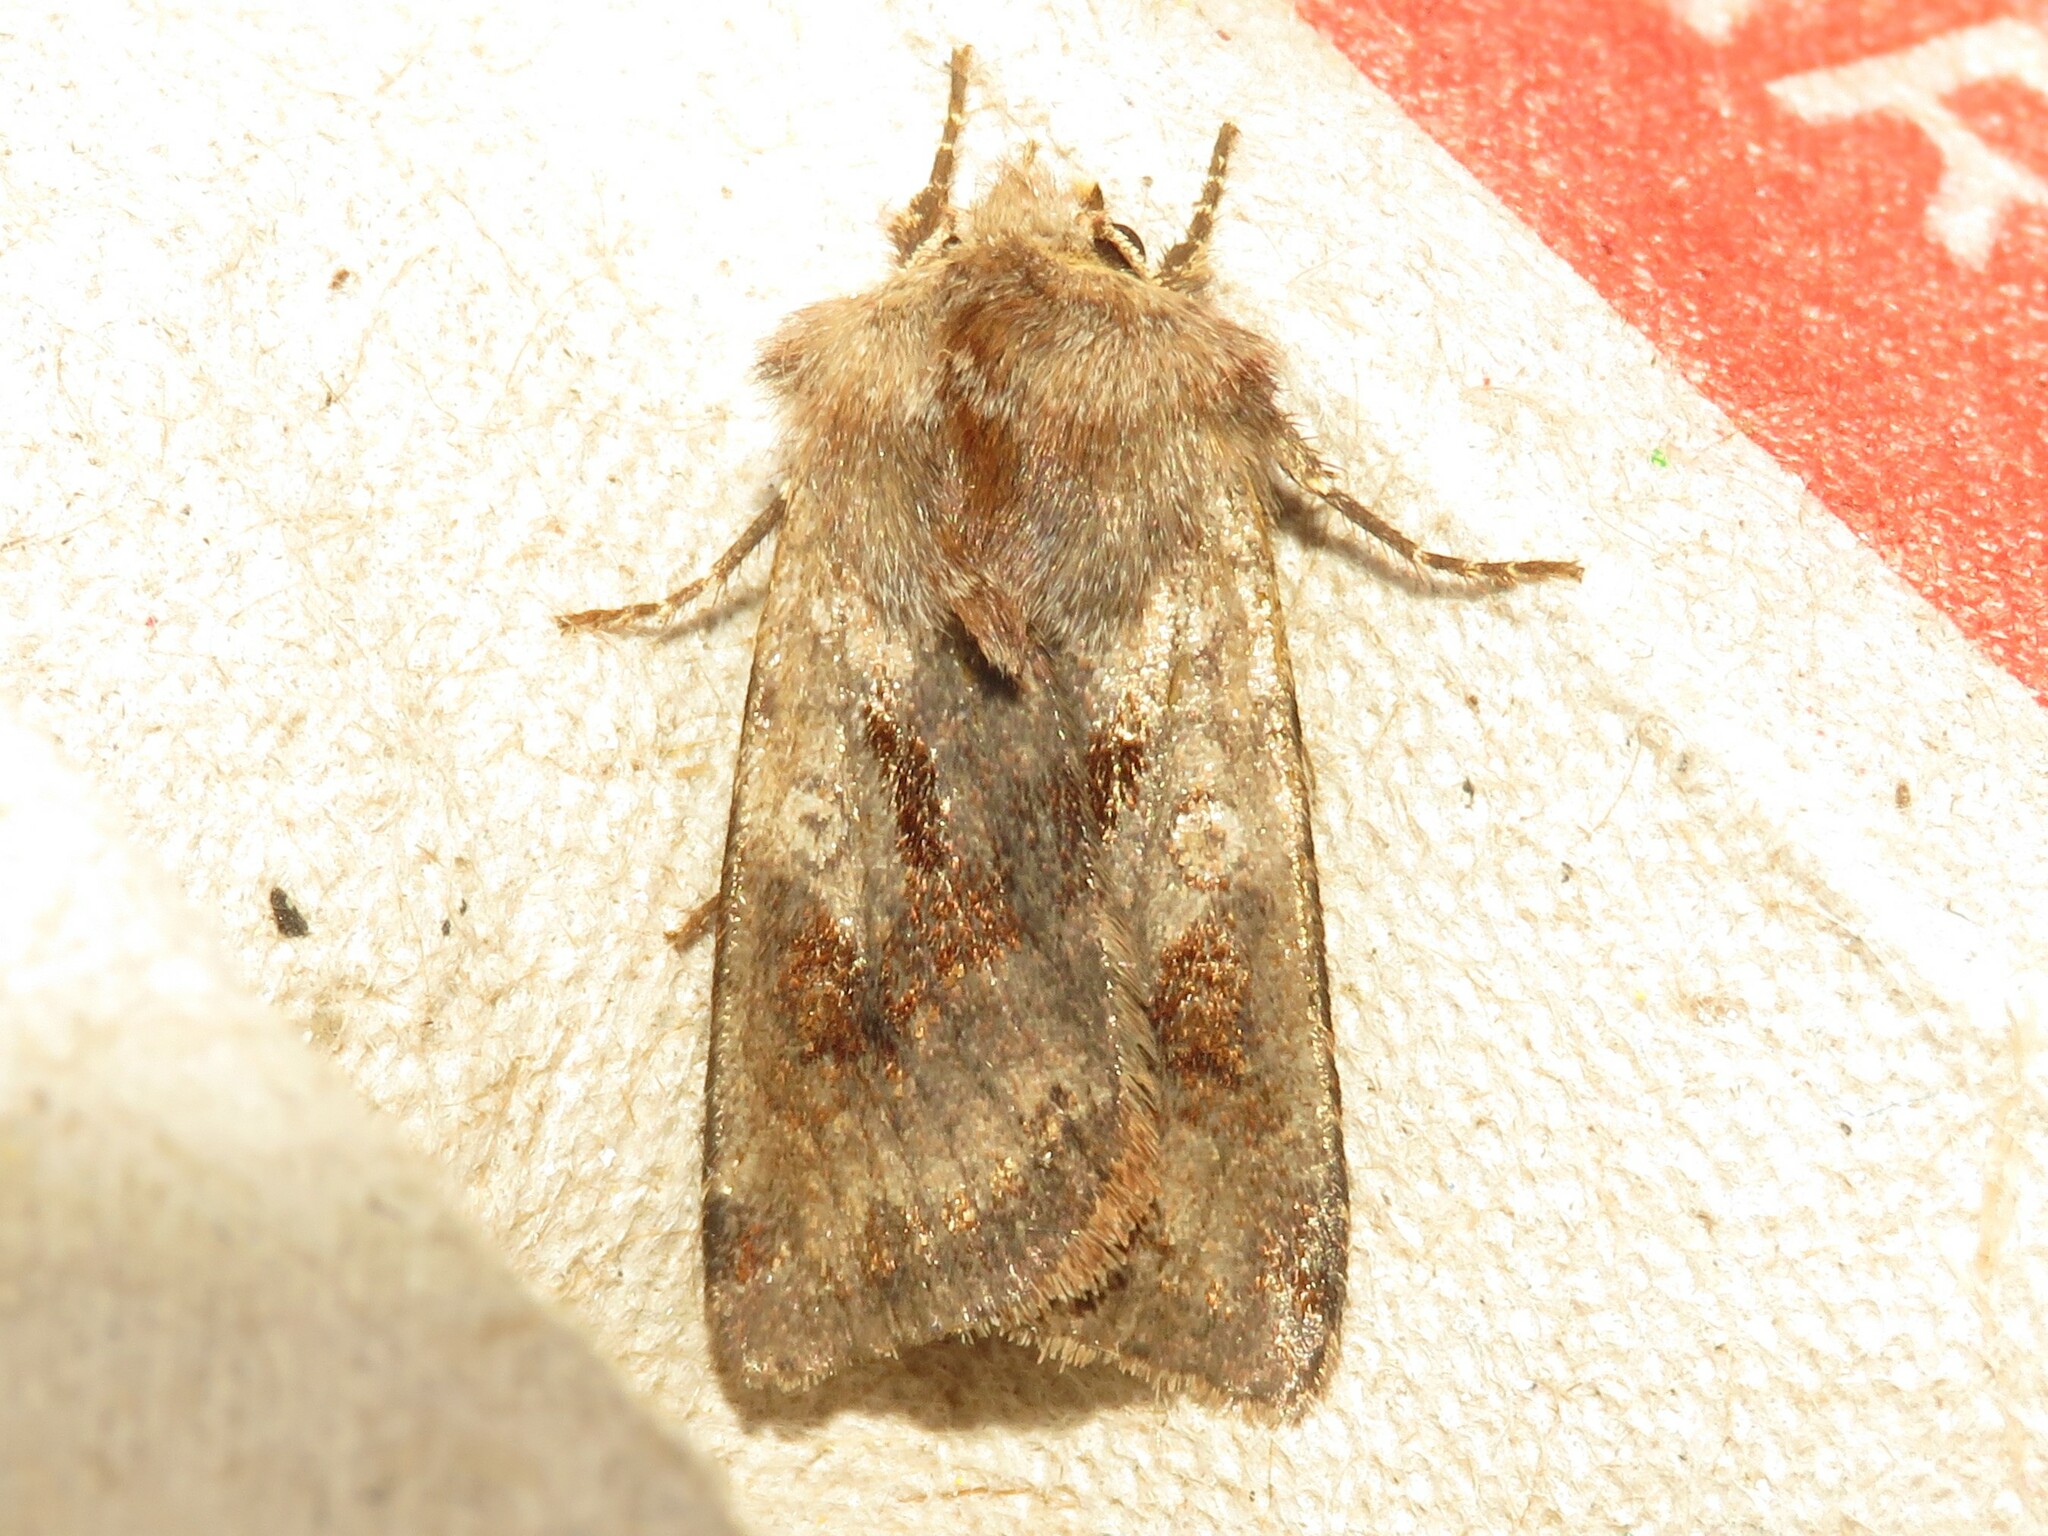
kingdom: Animalia
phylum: Arthropoda
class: Insecta
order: Lepidoptera
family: Noctuidae
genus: Cerastis
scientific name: Cerastis salicarum
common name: Willow dart
